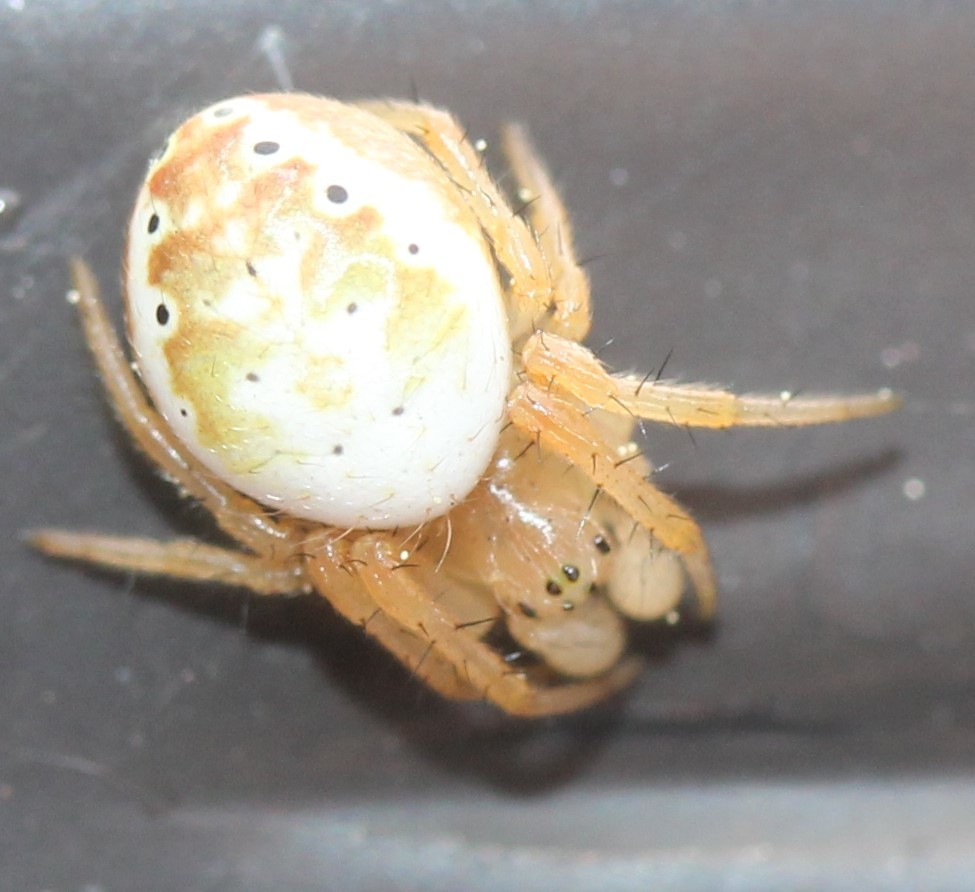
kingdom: Animalia
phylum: Arthropoda
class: Arachnida
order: Araneae
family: Araneidae
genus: Araniella
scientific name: Araniella displicata
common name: Sixspotted orb weaver
